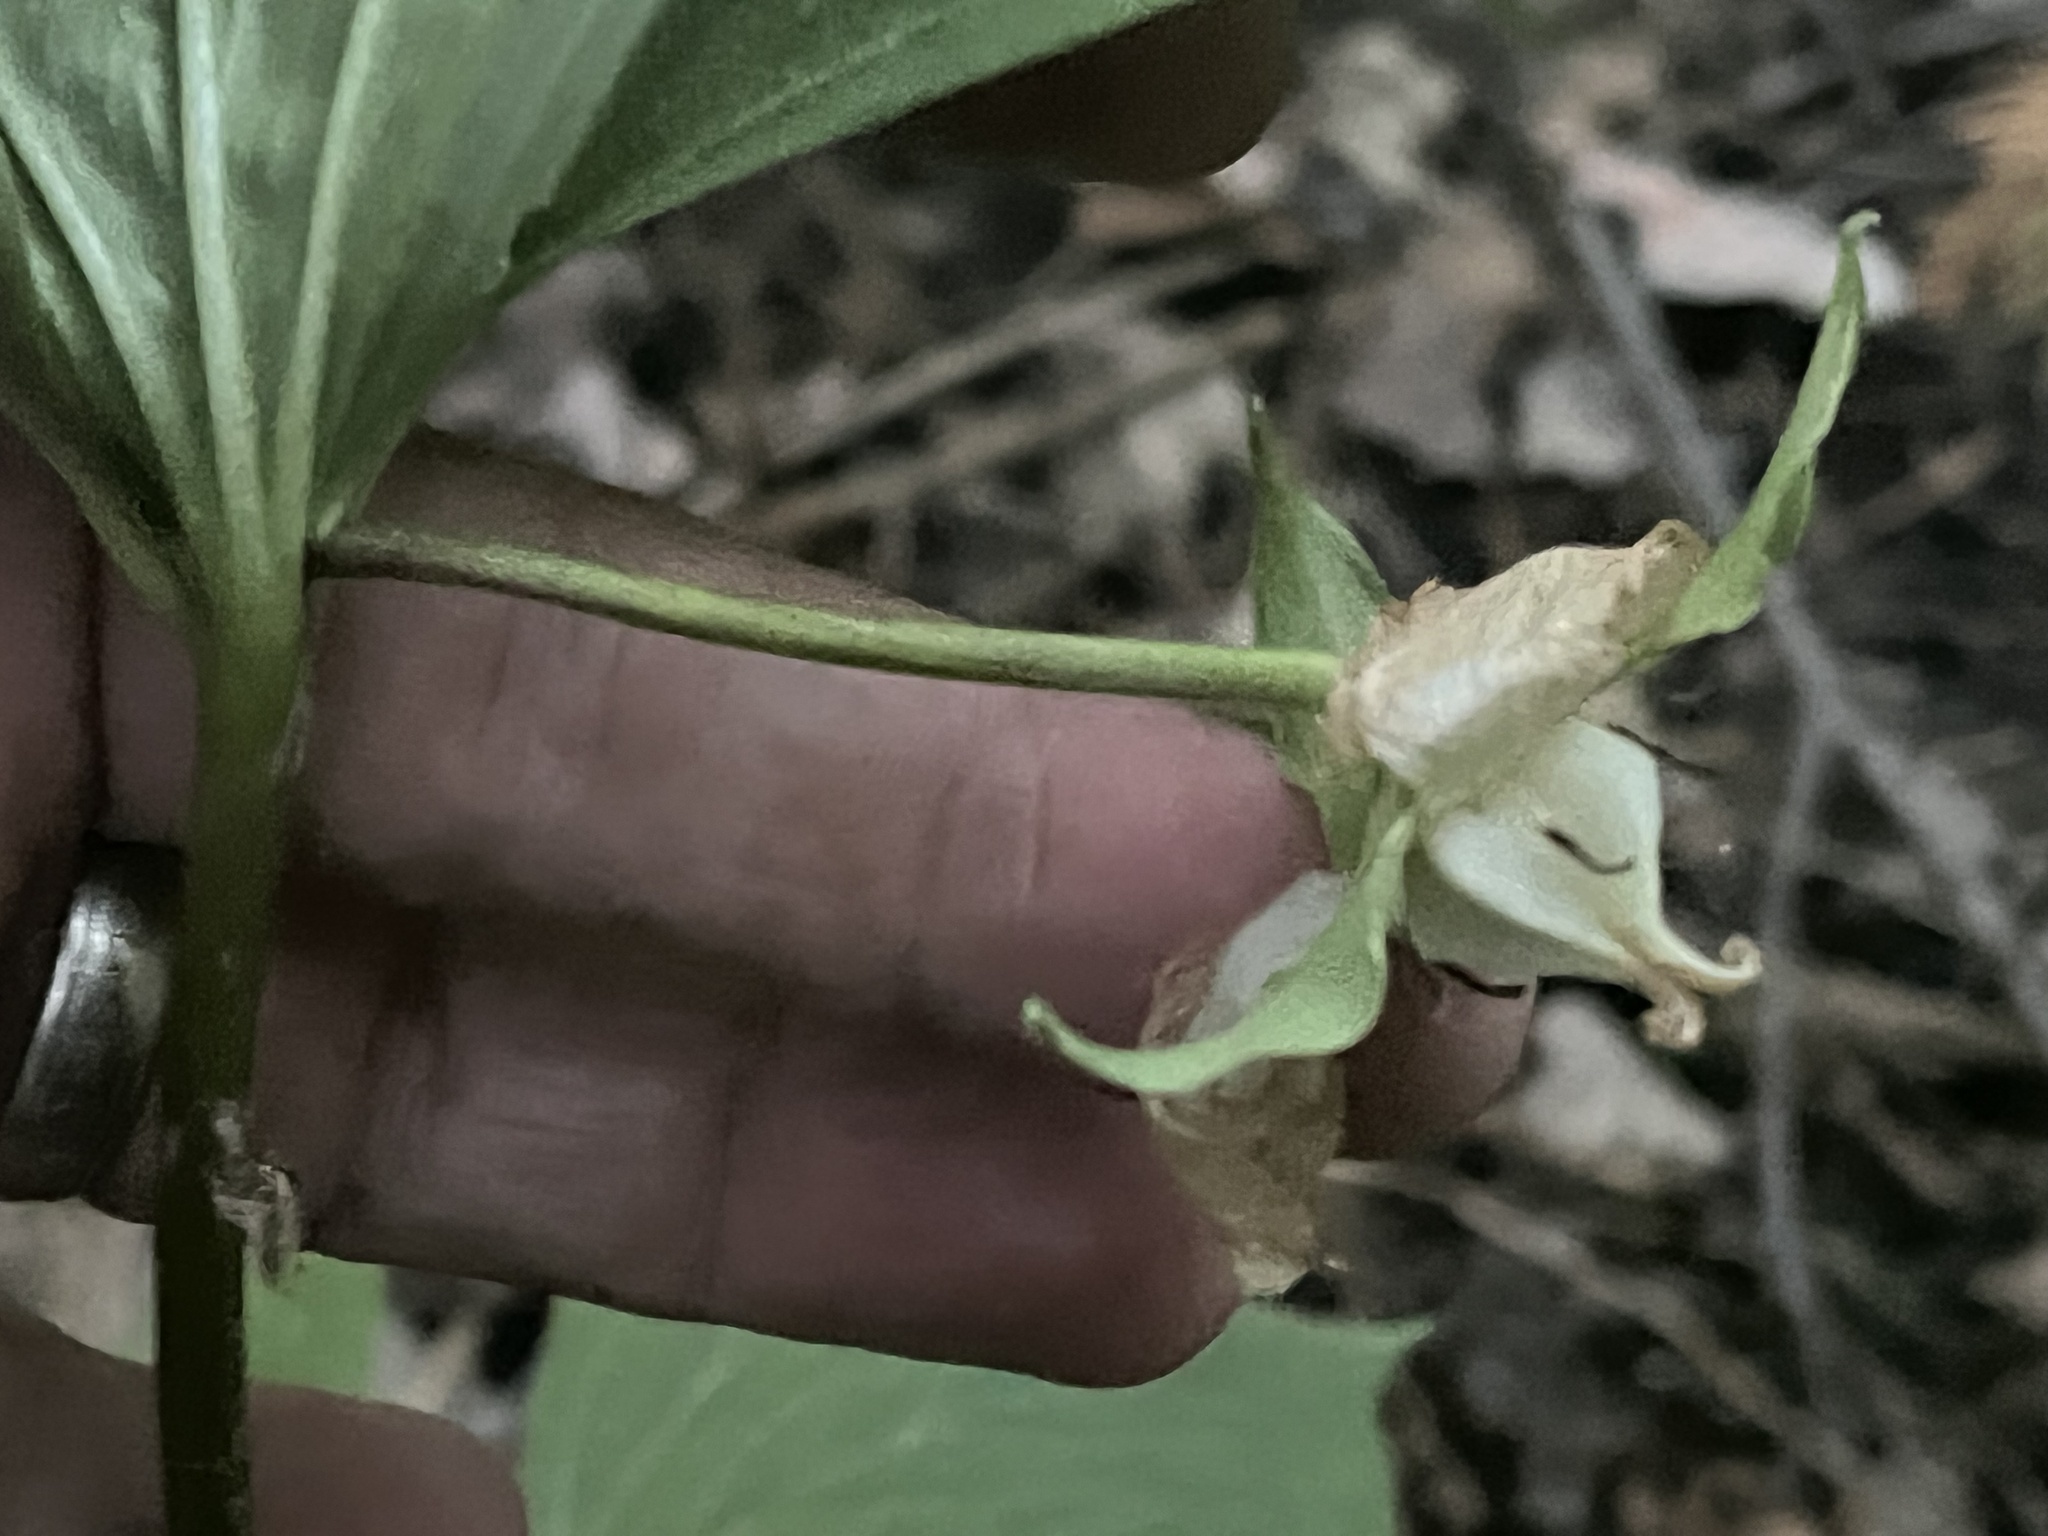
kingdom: Plantae
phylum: Tracheophyta
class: Liliopsida
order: Liliales
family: Melanthiaceae
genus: Trillium
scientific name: Trillium cernuum
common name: Nodding trillium
